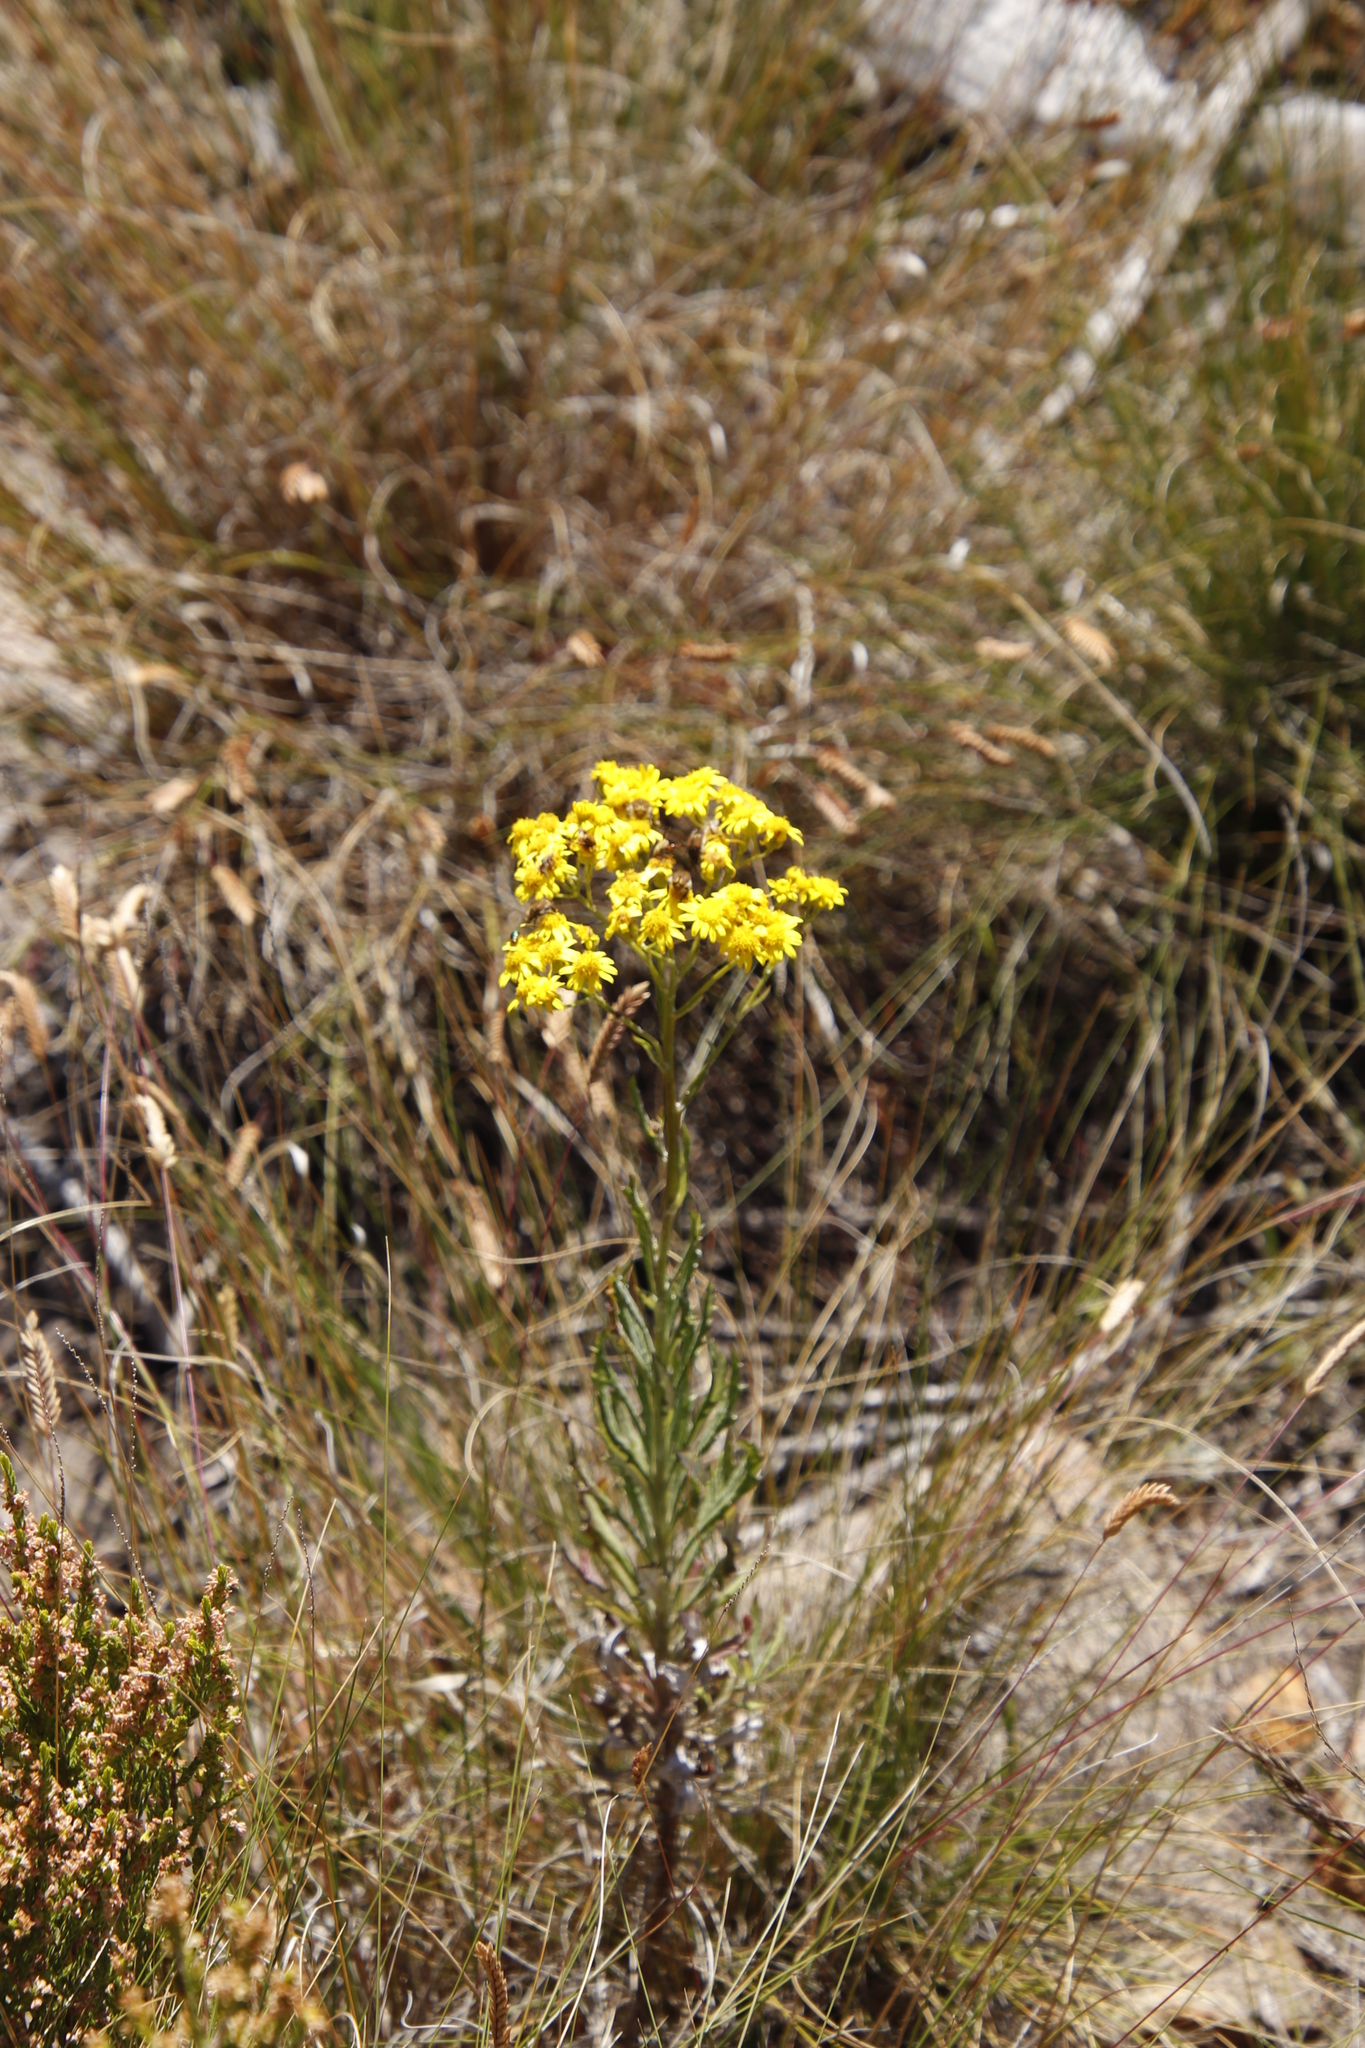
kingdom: Plantae
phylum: Tracheophyta
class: Magnoliopsida
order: Asterales
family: Asteraceae
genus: Senecio
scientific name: Senecio pterophorus
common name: Shoddy ragwort
